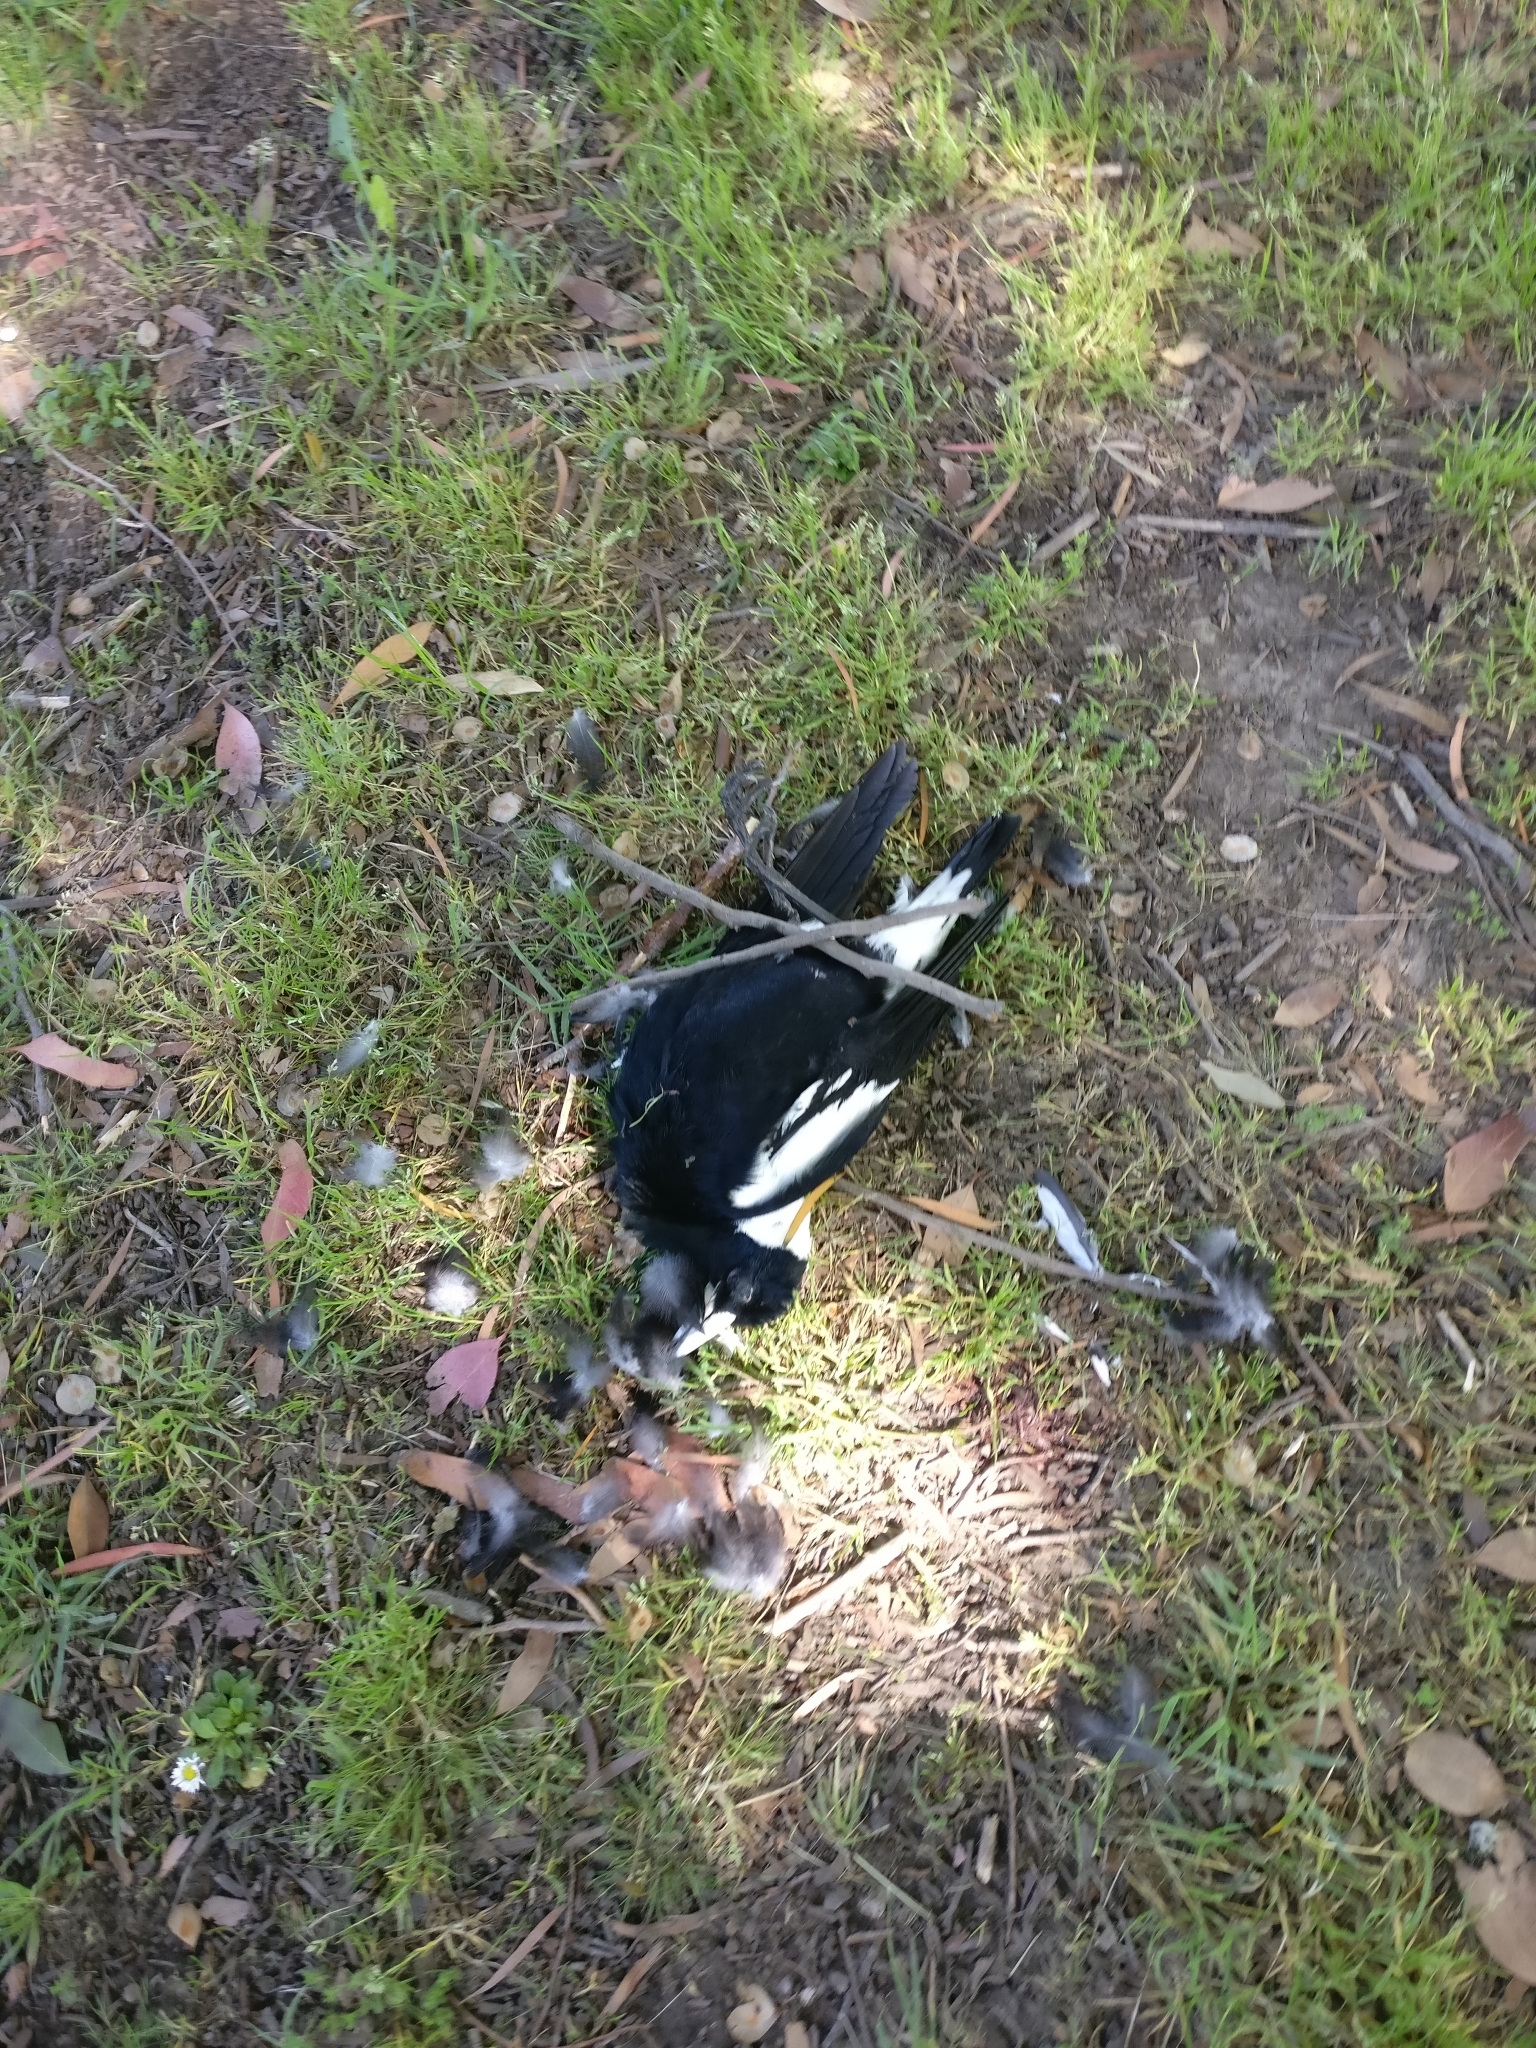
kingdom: Animalia
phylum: Chordata
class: Aves
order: Passeriformes
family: Cracticidae
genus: Gymnorhina
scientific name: Gymnorhina tibicen
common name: Australian magpie
